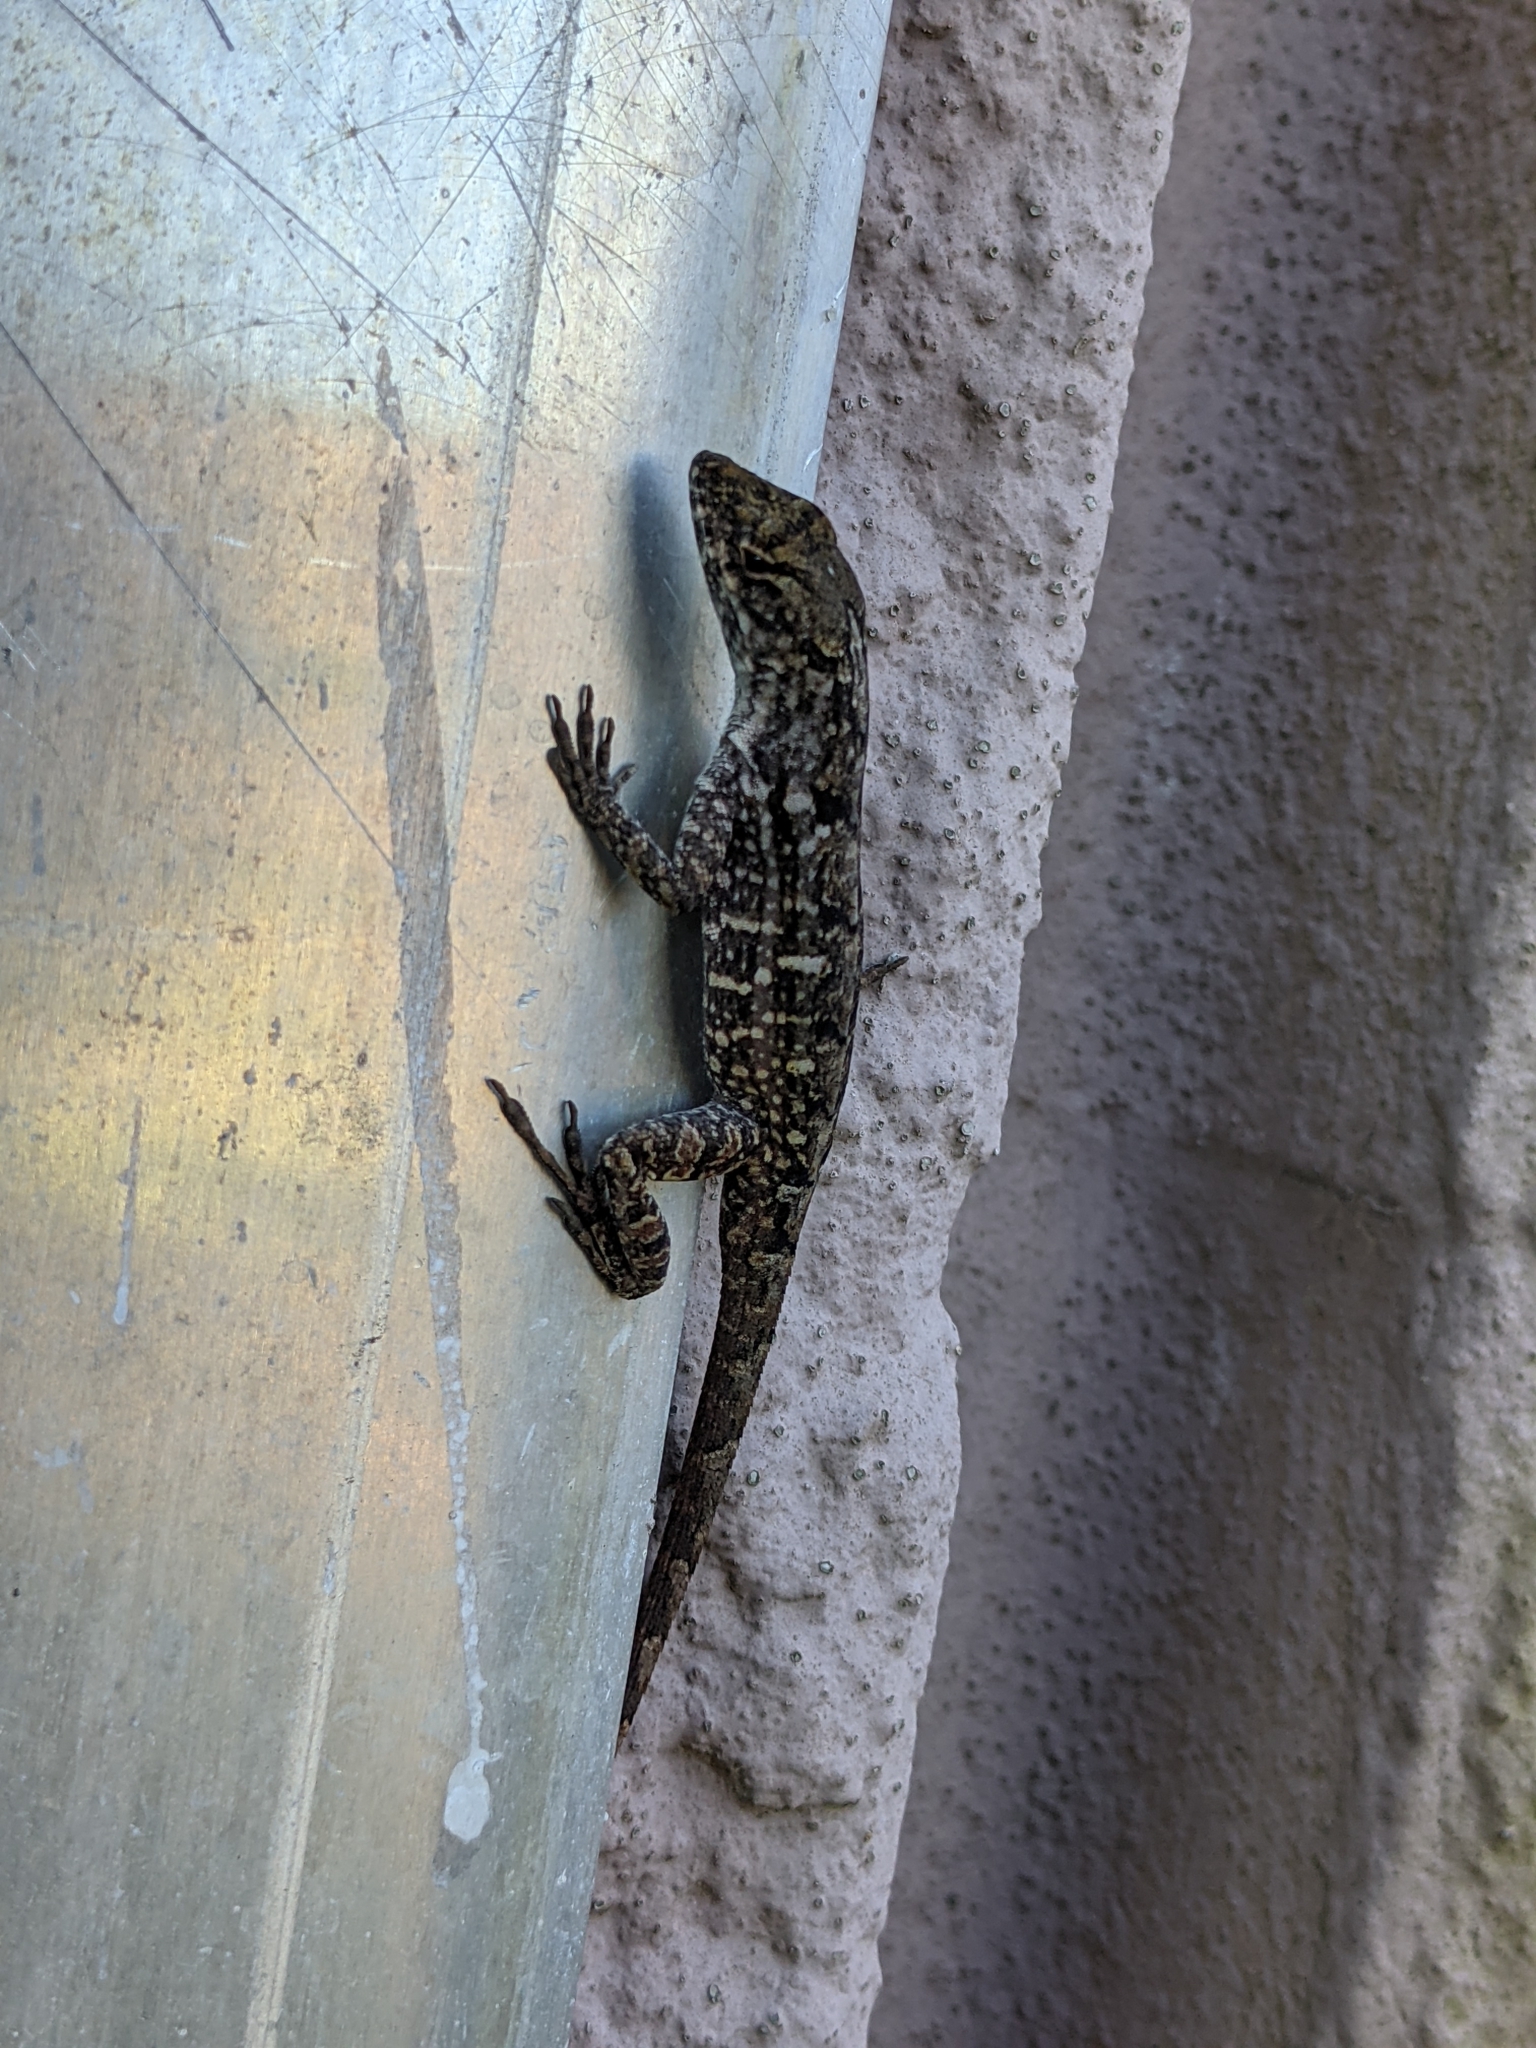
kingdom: Animalia
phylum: Chordata
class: Squamata
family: Dactyloidae
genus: Anolis
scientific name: Anolis sagrei
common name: Brown anole
